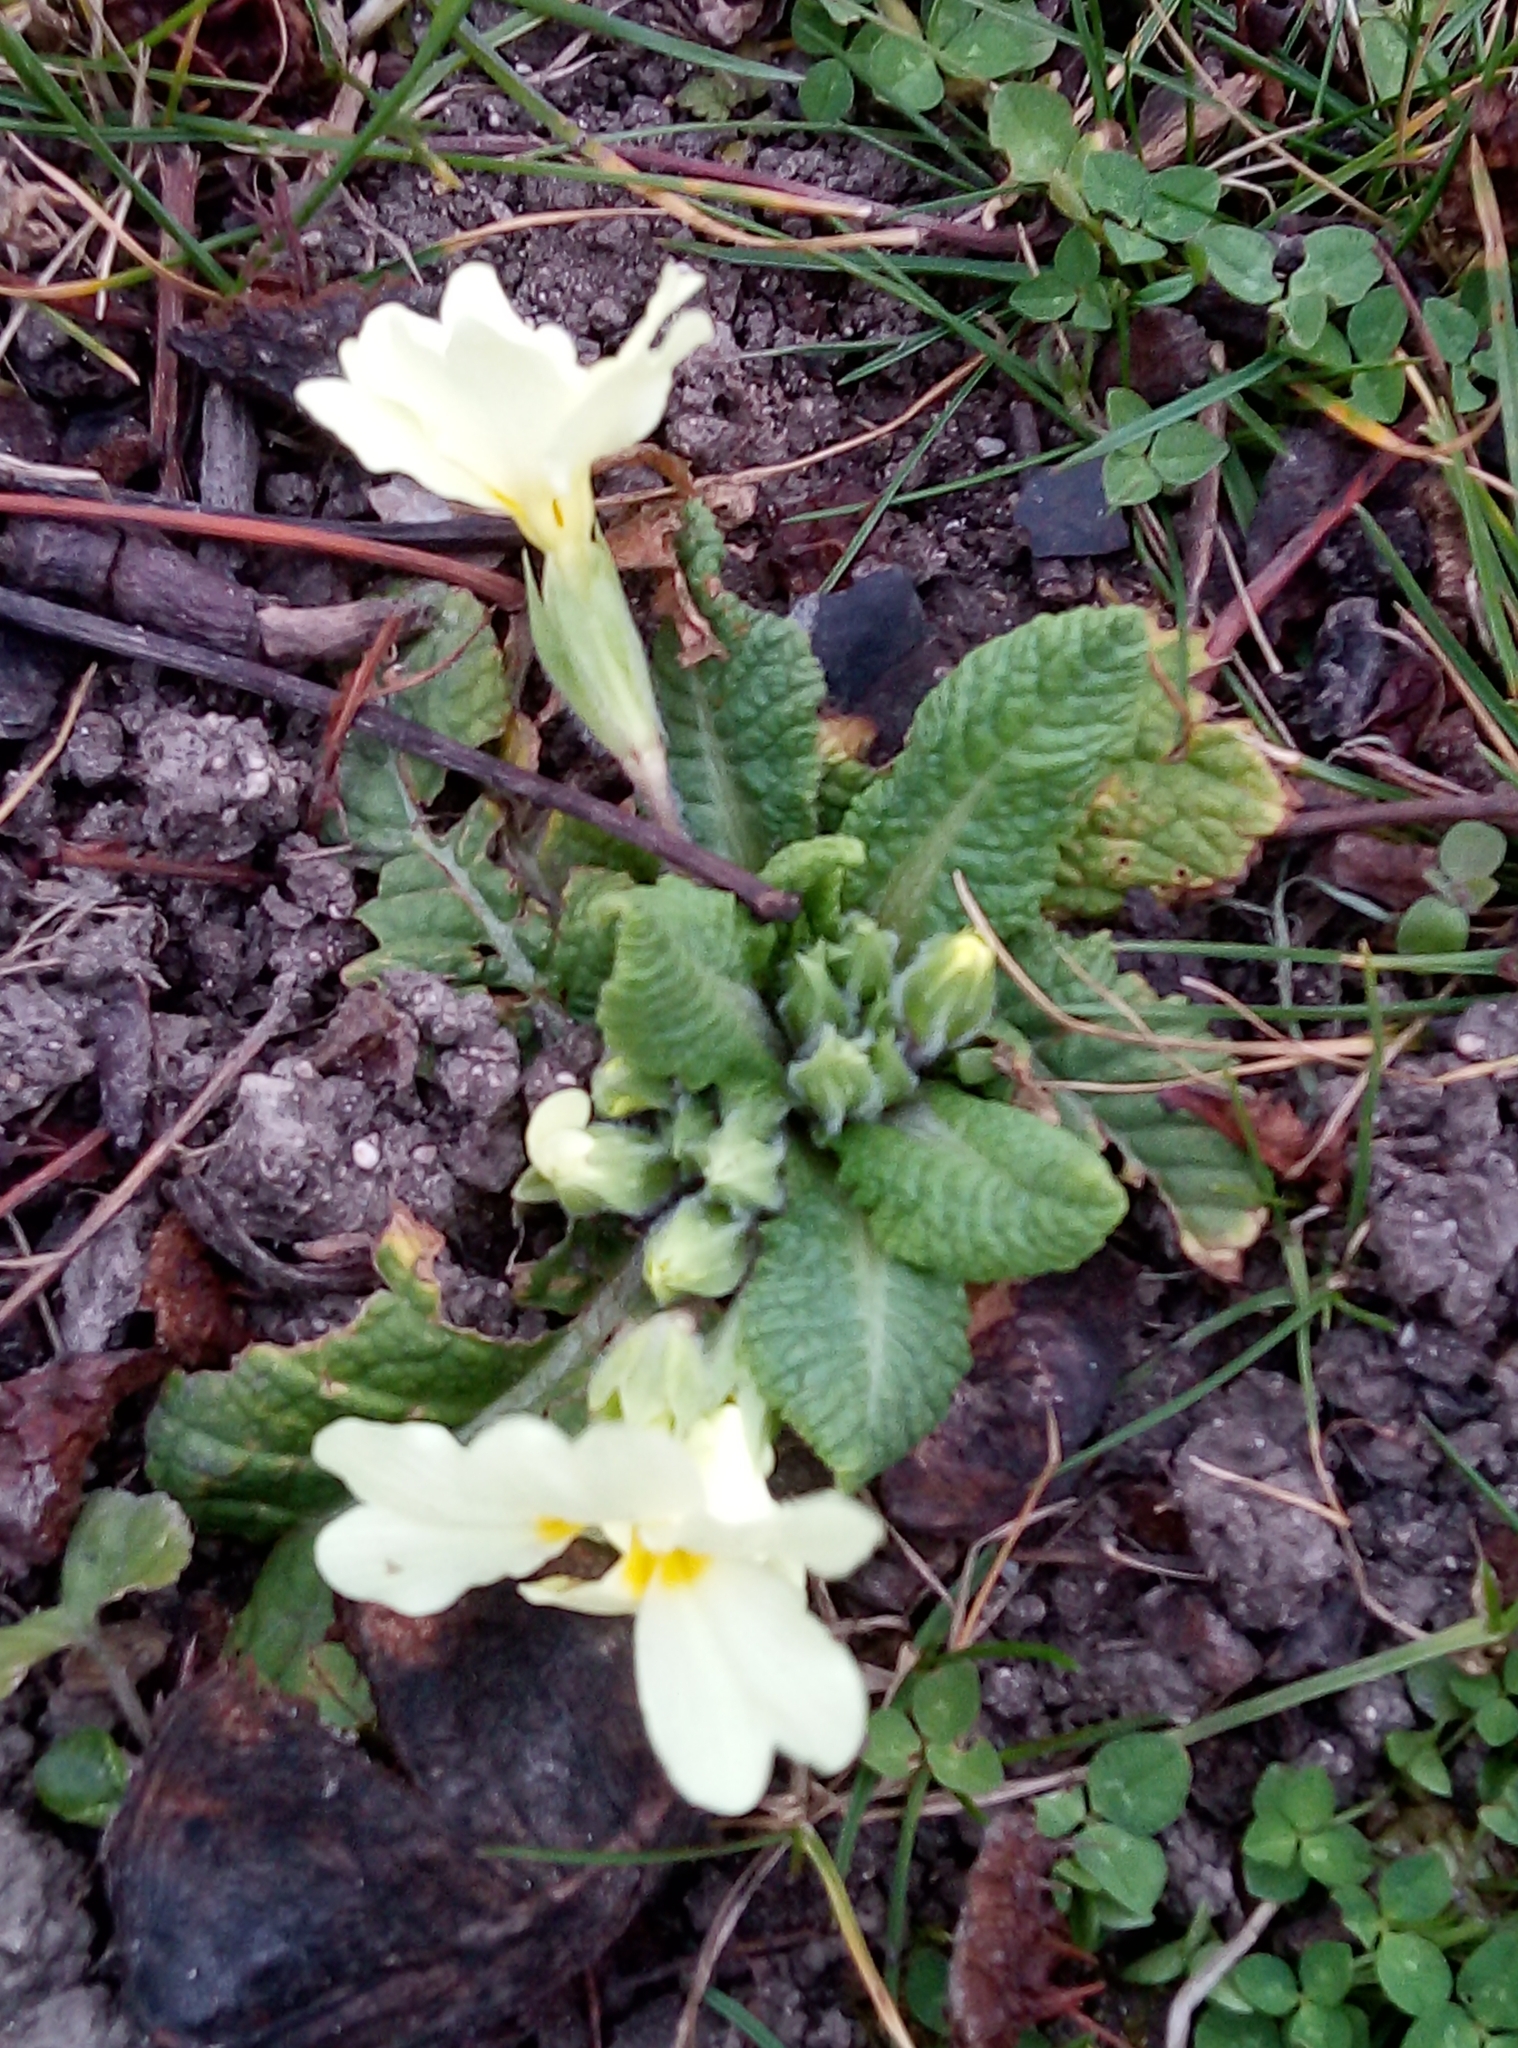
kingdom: Plantae
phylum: Tracheophyta
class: Magnoliopsida
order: Ericales
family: Primulaceae
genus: Primula
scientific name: Primula vulgaris
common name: Primrose
